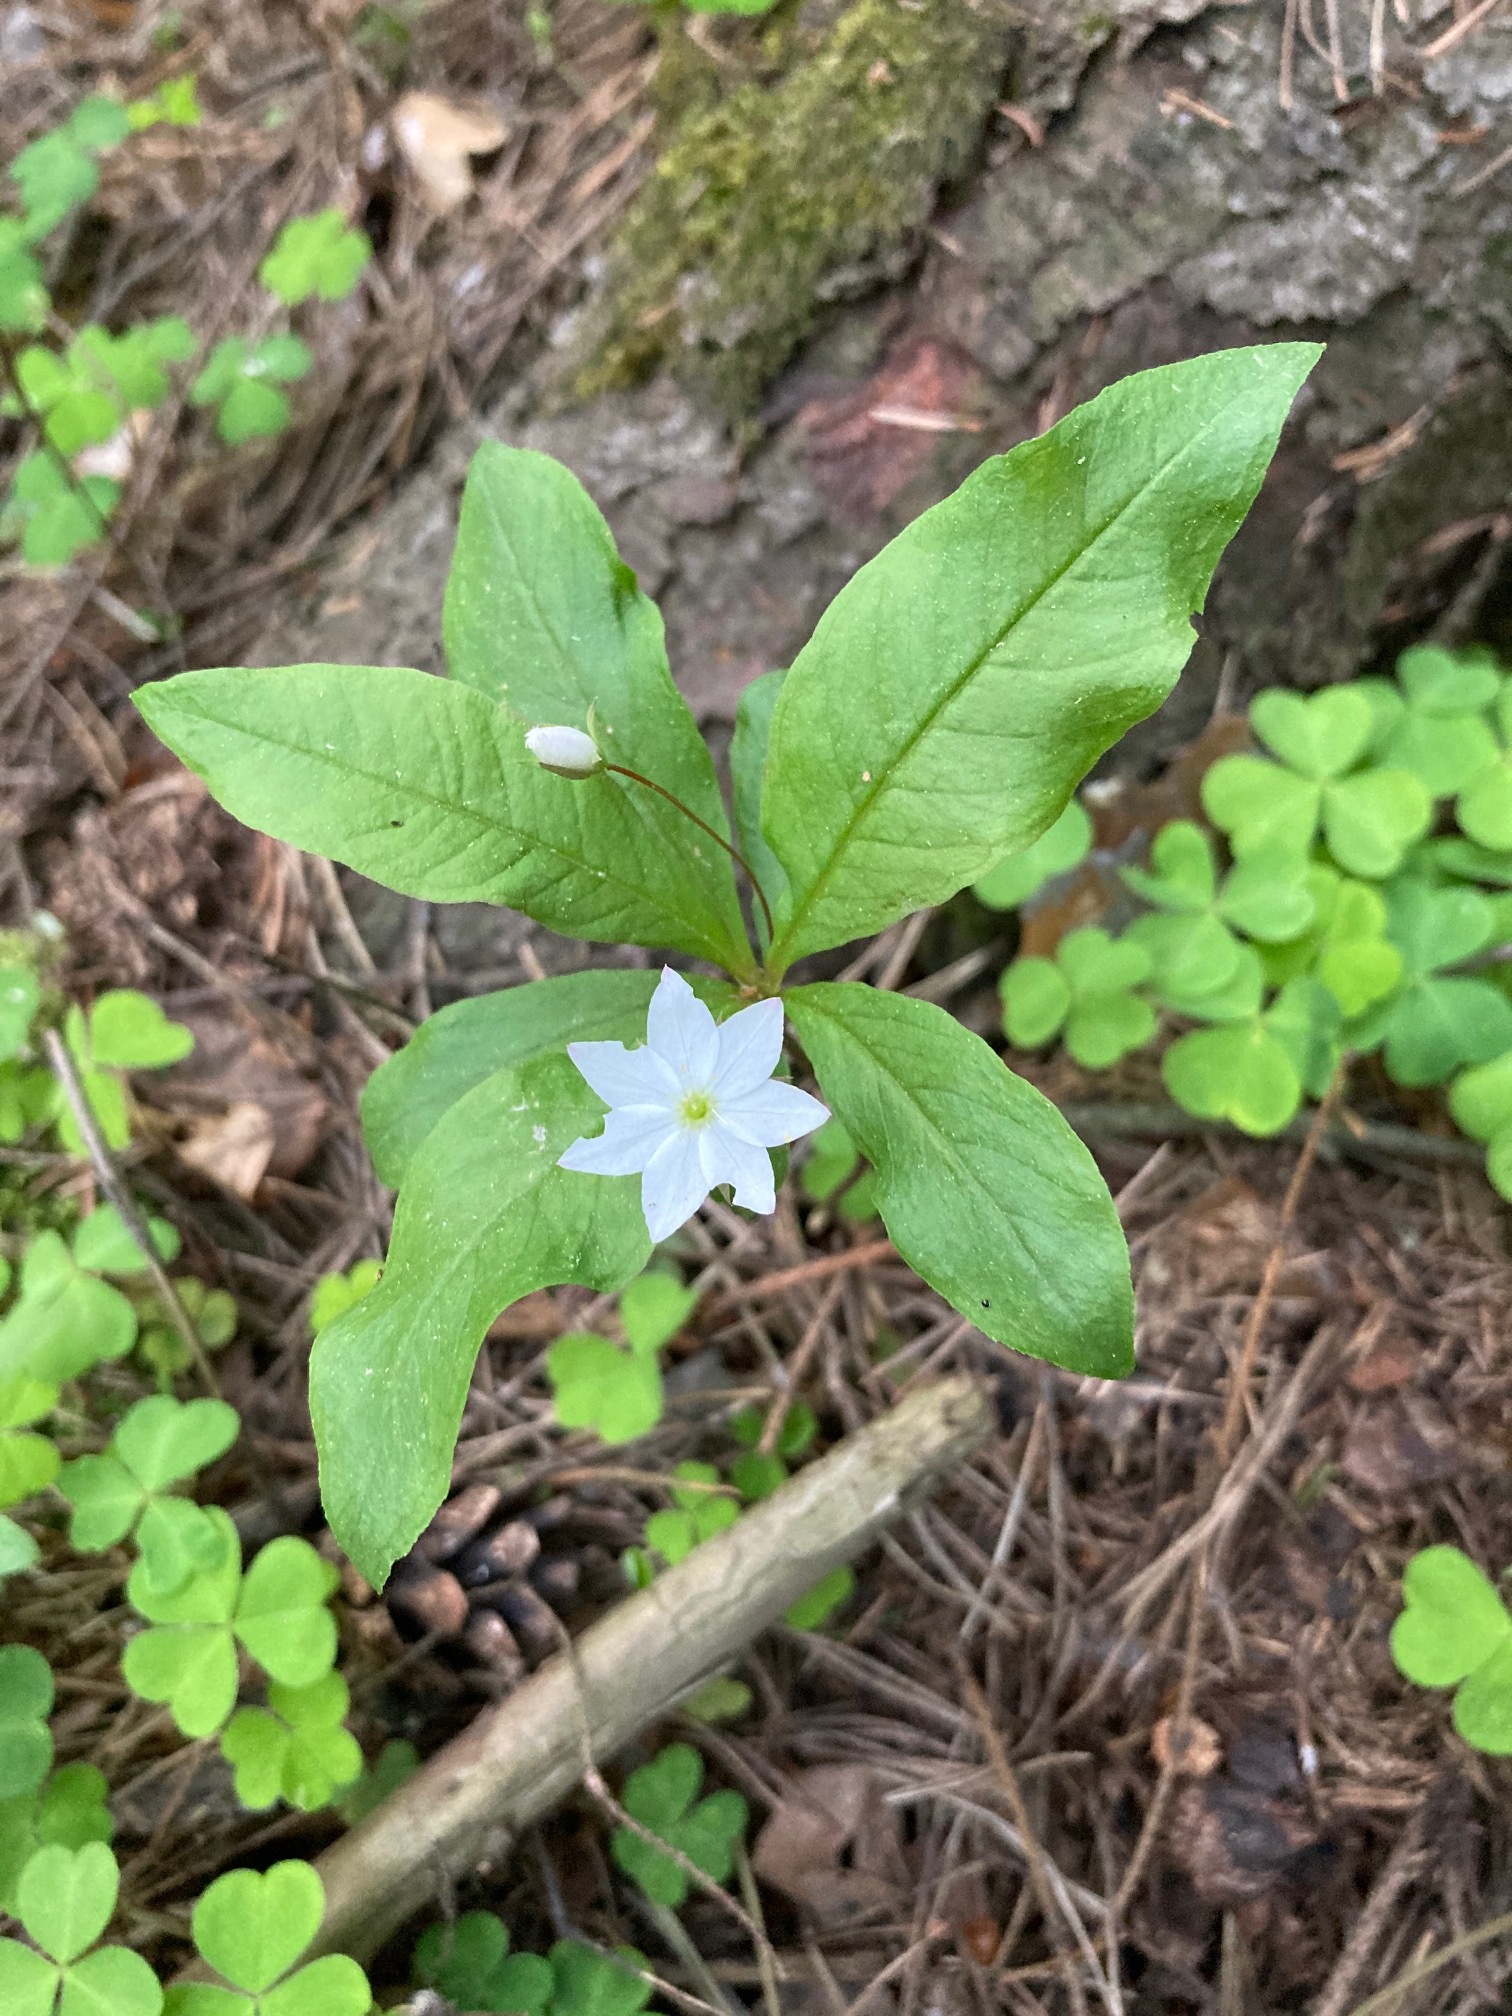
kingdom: Plantae
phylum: Tracheophyta
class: Magnoliopsida
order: Ericales
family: Primulaceae
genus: Lysimachia
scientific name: Lysimachia europaea
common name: Arctic starflower
